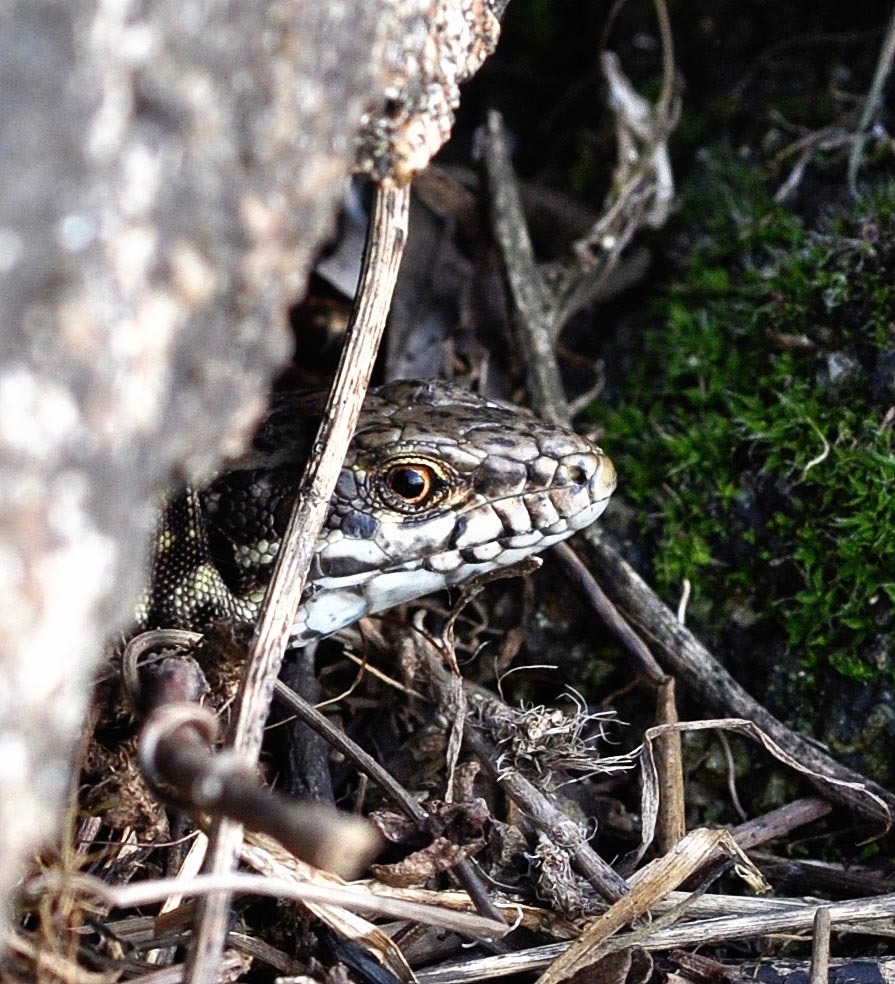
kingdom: Animalia
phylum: Chordata
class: Squamata
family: Lacertidae
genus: Podarcis
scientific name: Podarcis muralis
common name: Common wall lizard
